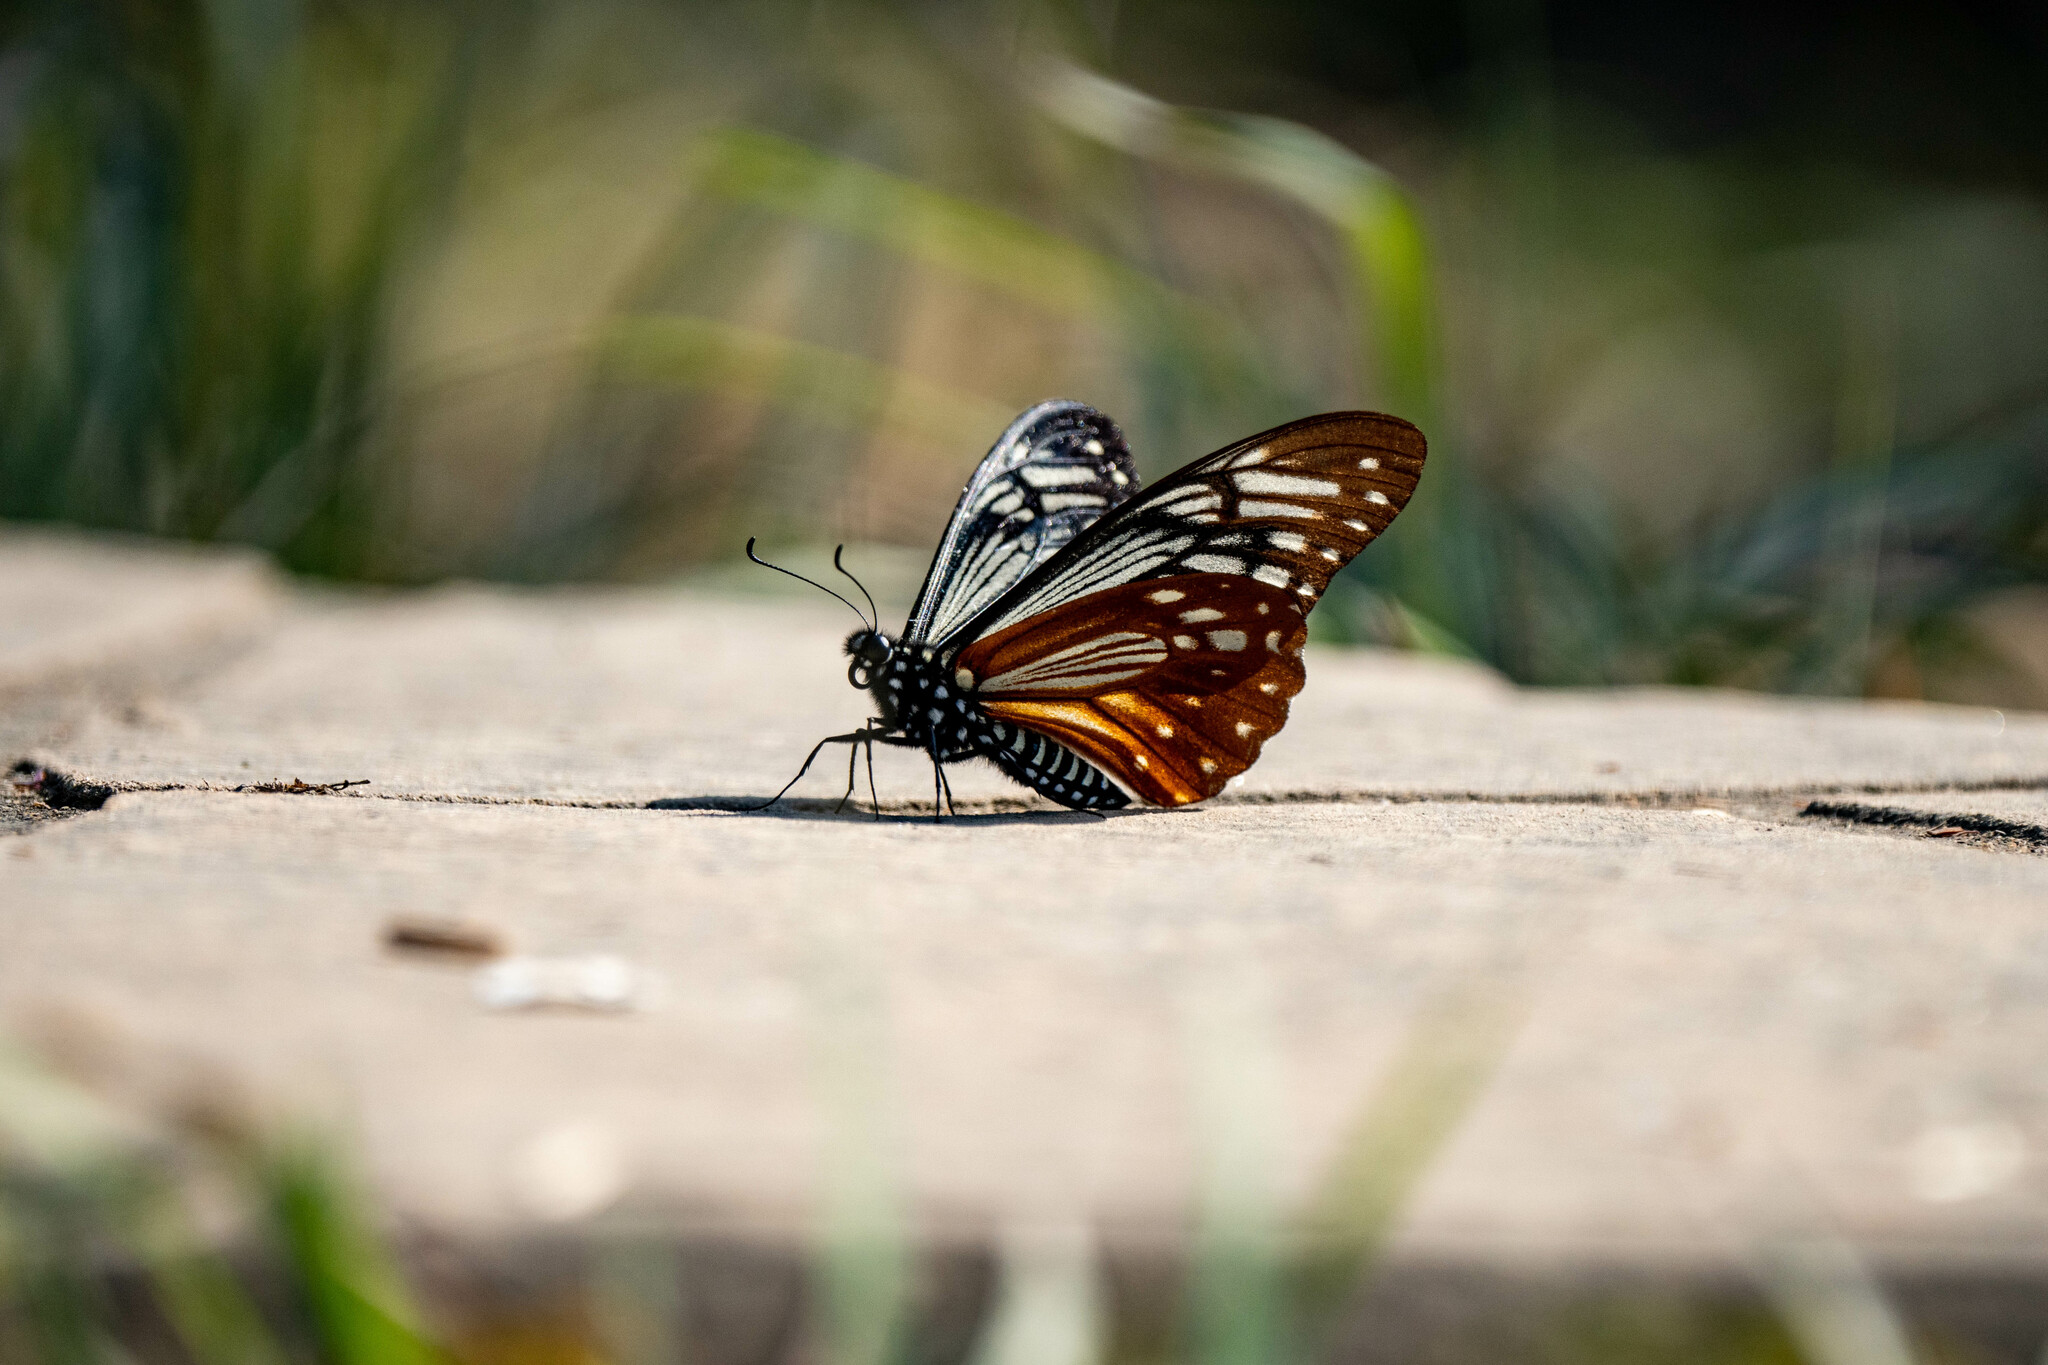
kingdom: Animalia
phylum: Arthropoda
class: Insecta
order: Lepidoptera
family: Lycaenidae
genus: Plebicula
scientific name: Plebicula escheri
